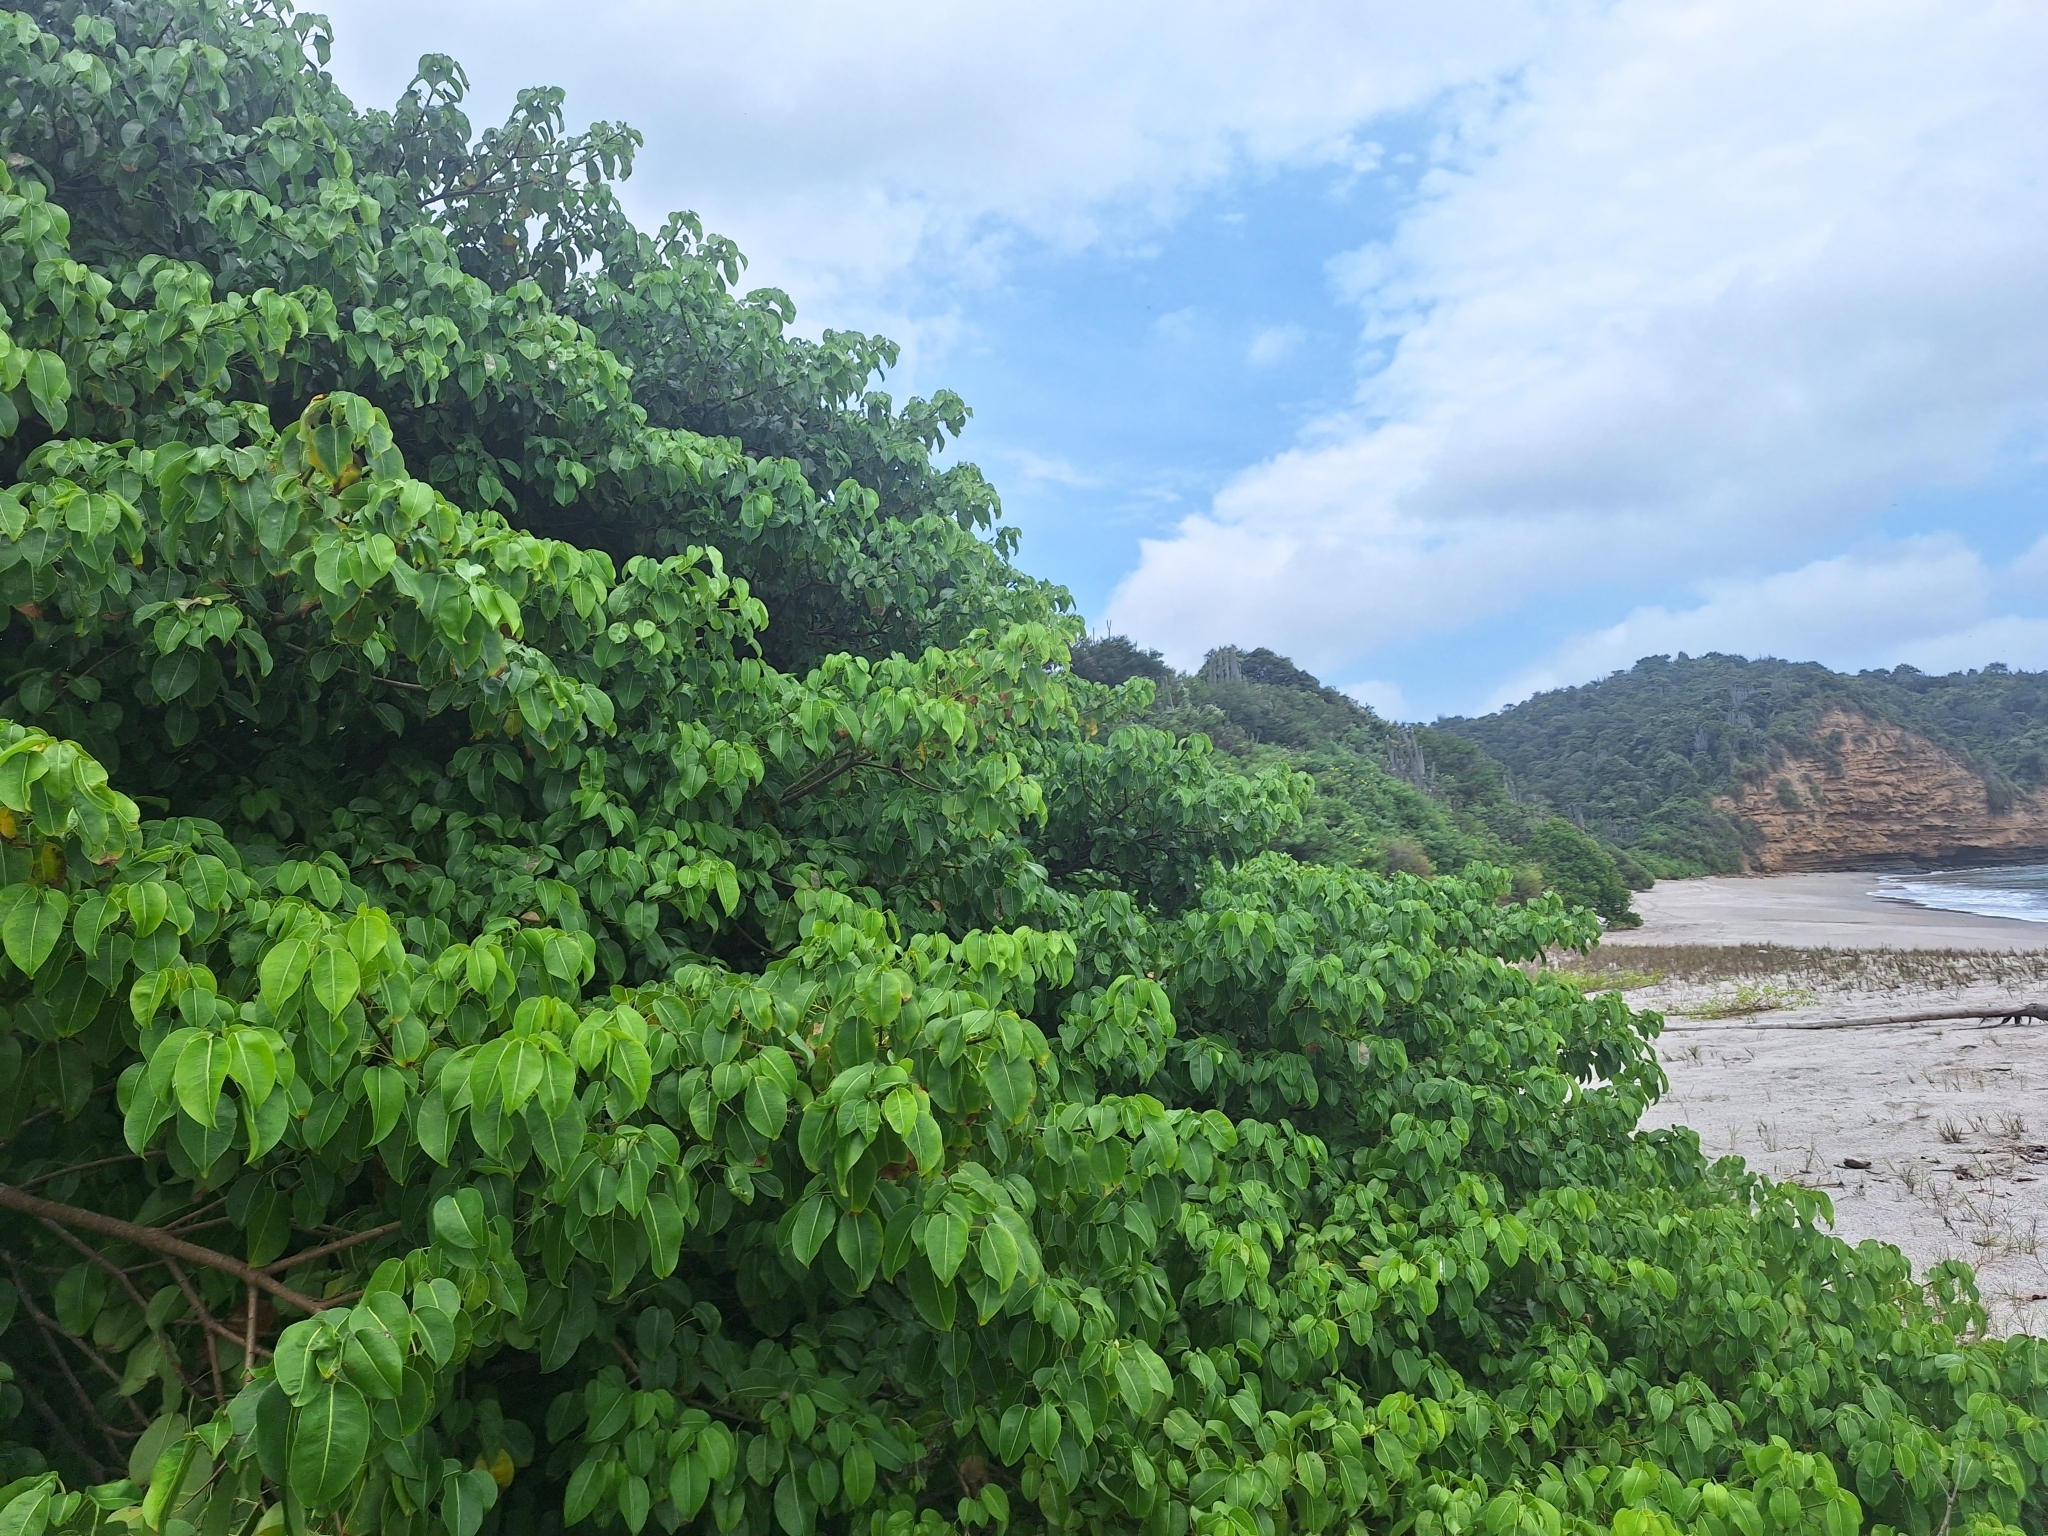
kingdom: Plantae
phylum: Tracheophyta
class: Magnoliopsida
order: Malpighiales
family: Euphorbiaceae
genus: Hippomane
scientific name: Hippomane mancinella
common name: Manchineel
